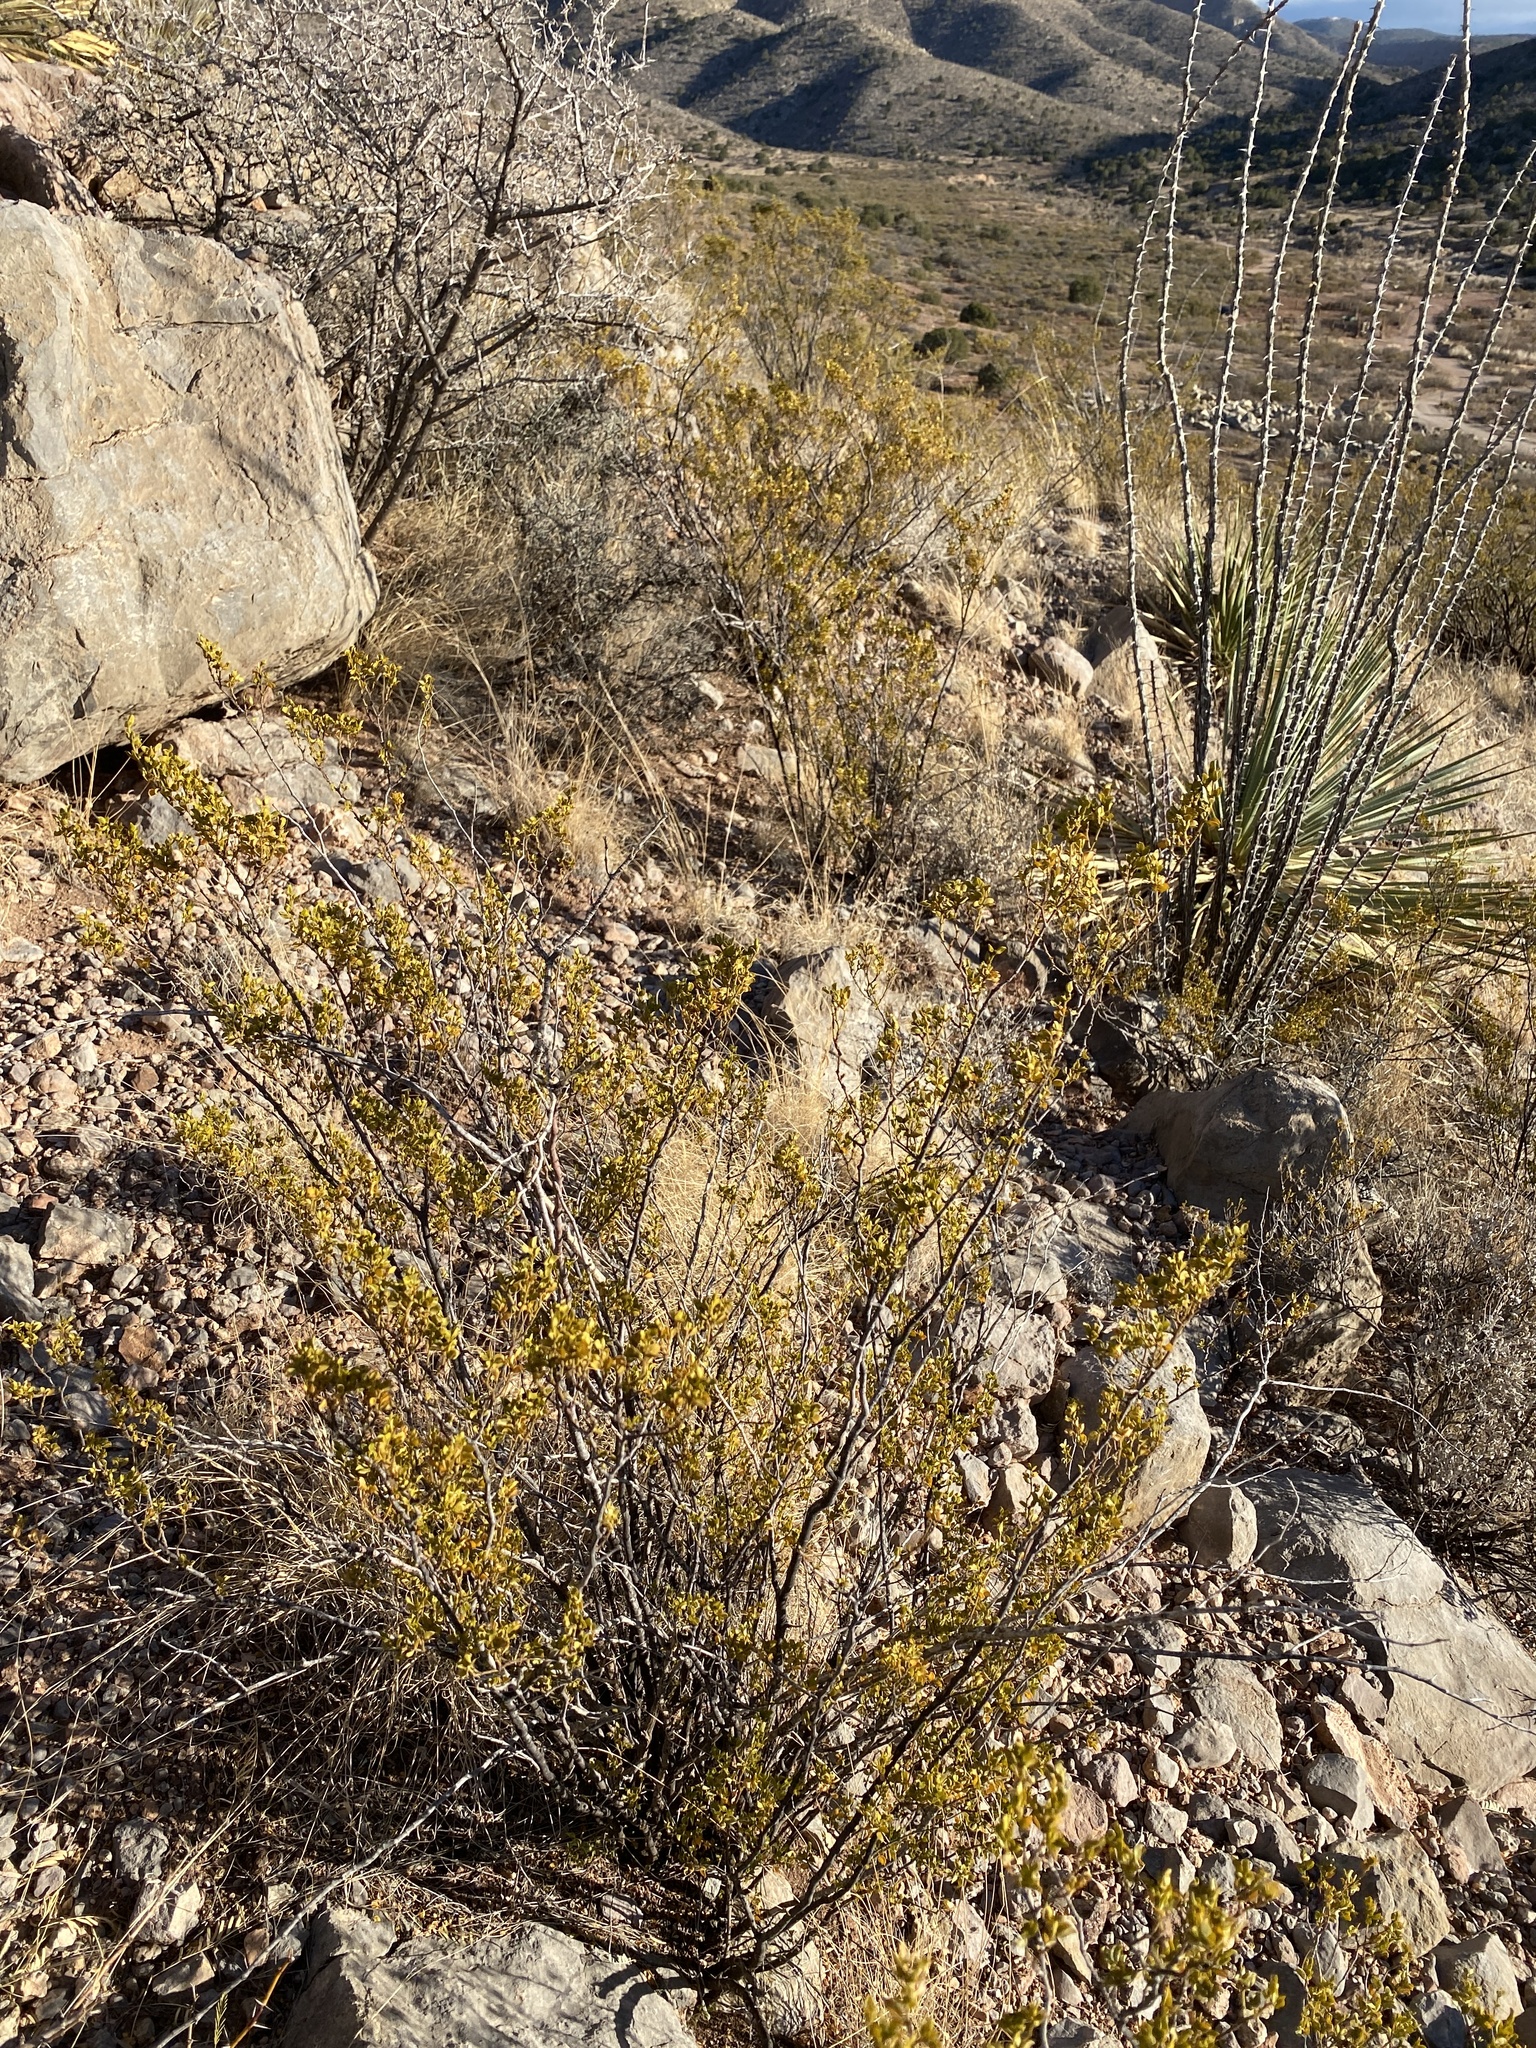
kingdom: Plantae
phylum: Tracheophyta
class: Magnoliopsida
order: Zygophyllales
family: Zygophyllaceae
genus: Larrea
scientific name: Larrea tridentata
